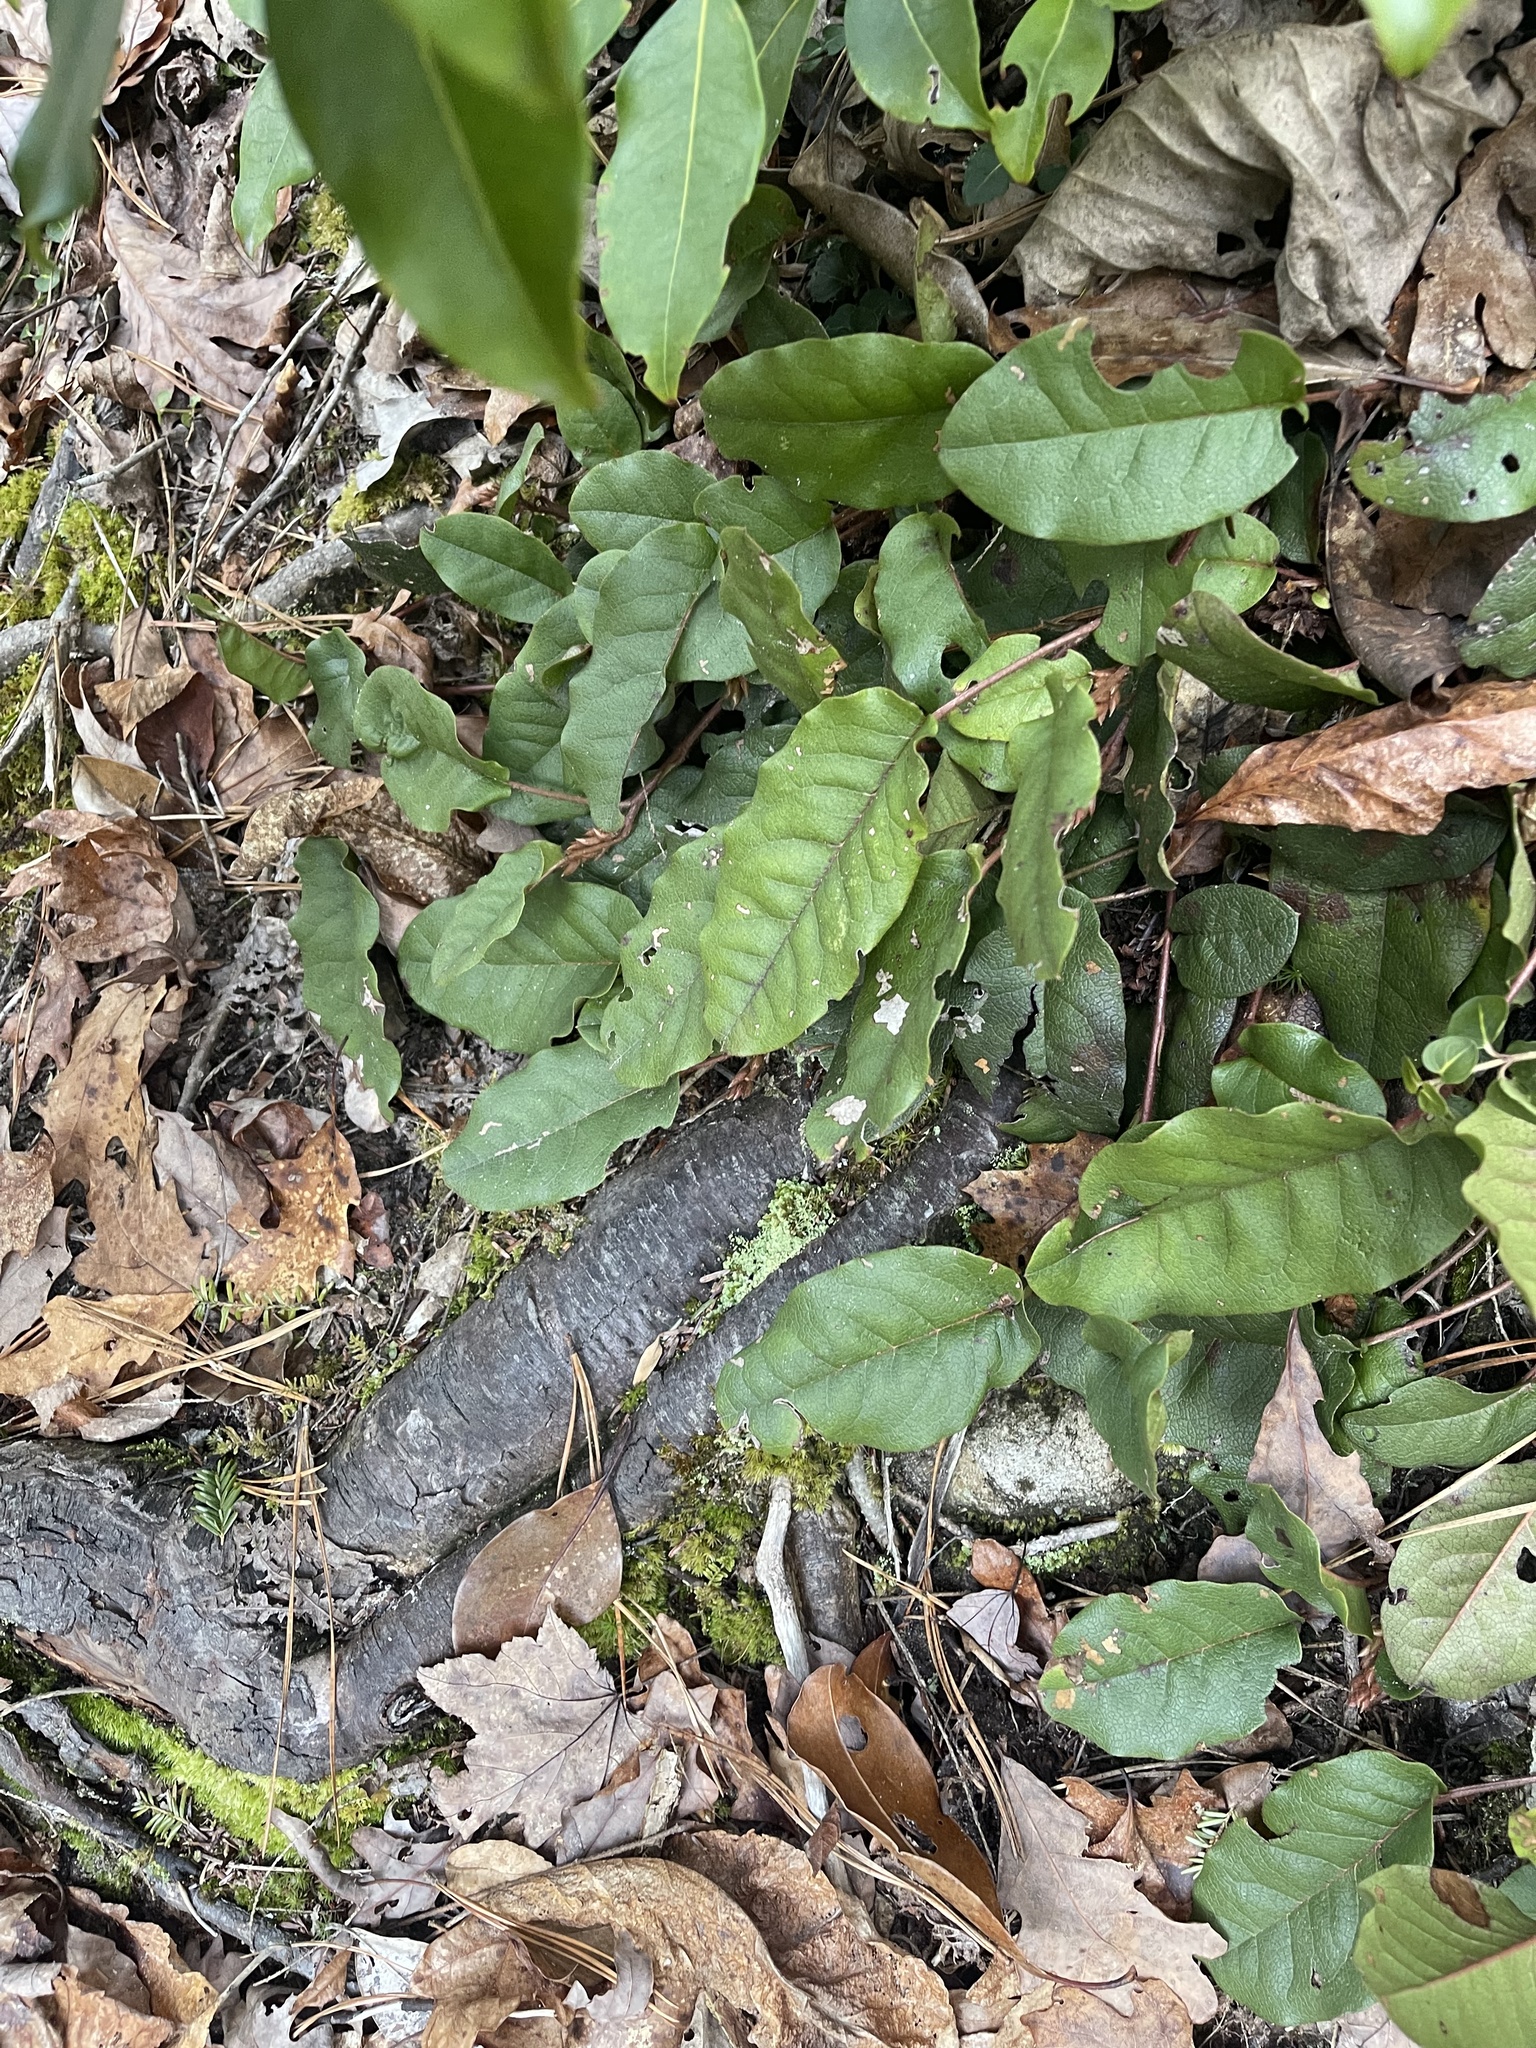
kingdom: Plantae
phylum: Tracheophyta
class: Magnoliopsida
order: Ericales
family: Ericaceae
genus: Epigaea
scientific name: Epigaea repens
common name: Gravelroot
